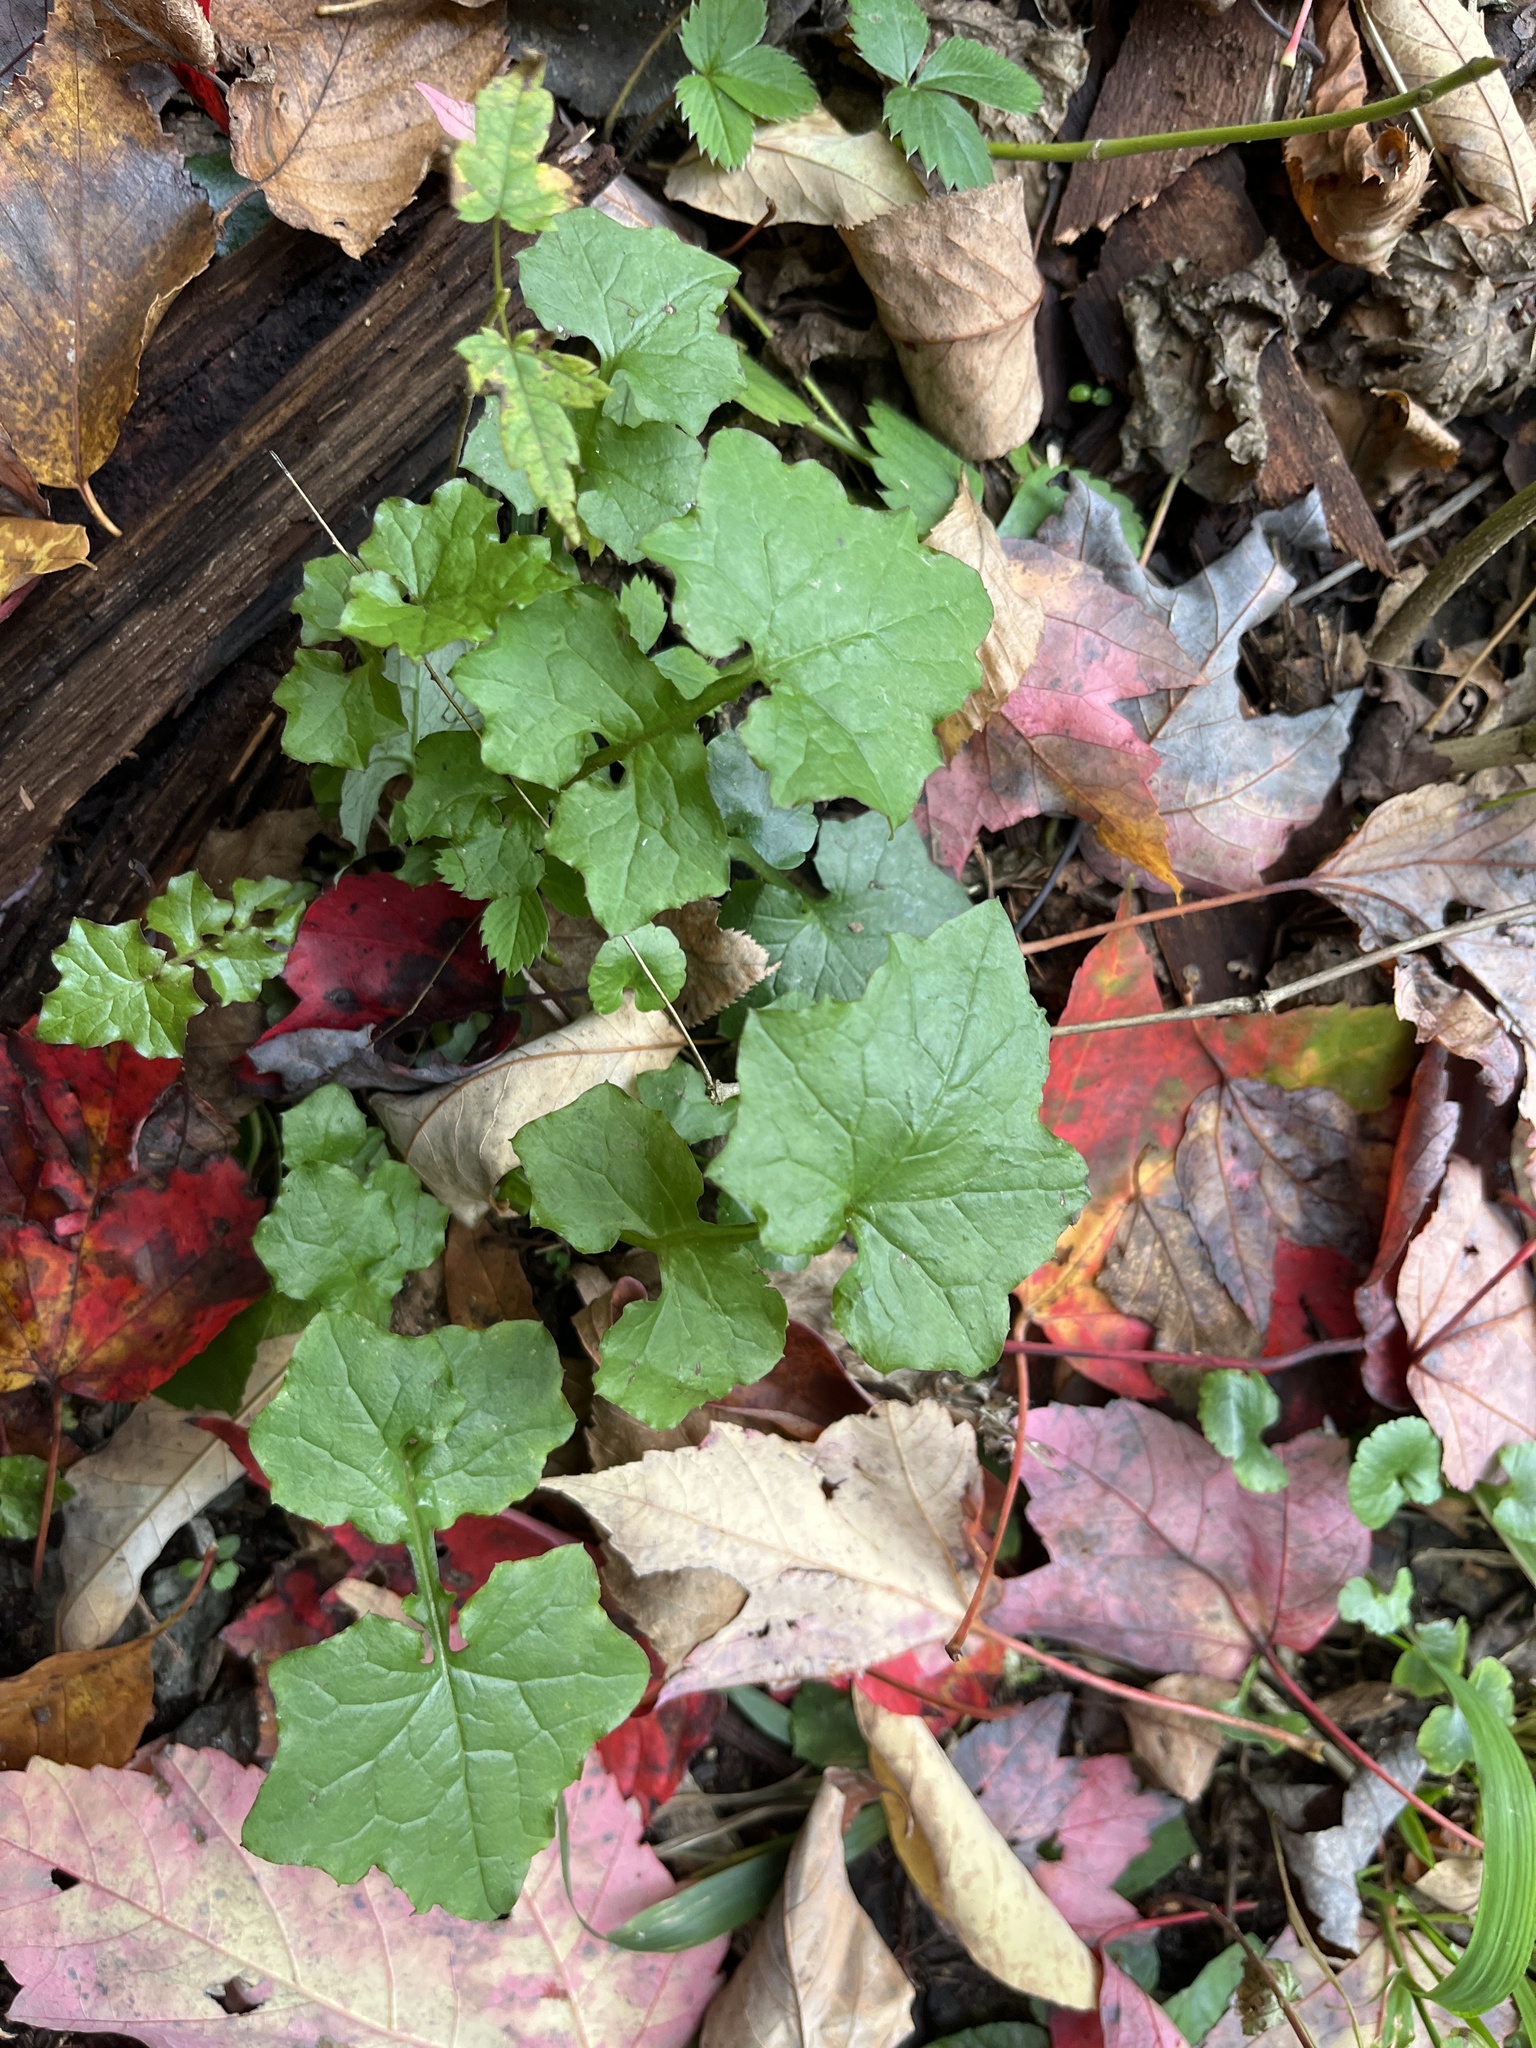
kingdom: Plantae
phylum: Tracheophyta
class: Magnoliopsida
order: Asterales
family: Asteraceae
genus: Mycelis
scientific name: Mycelis muralis
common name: Wall lettuce
